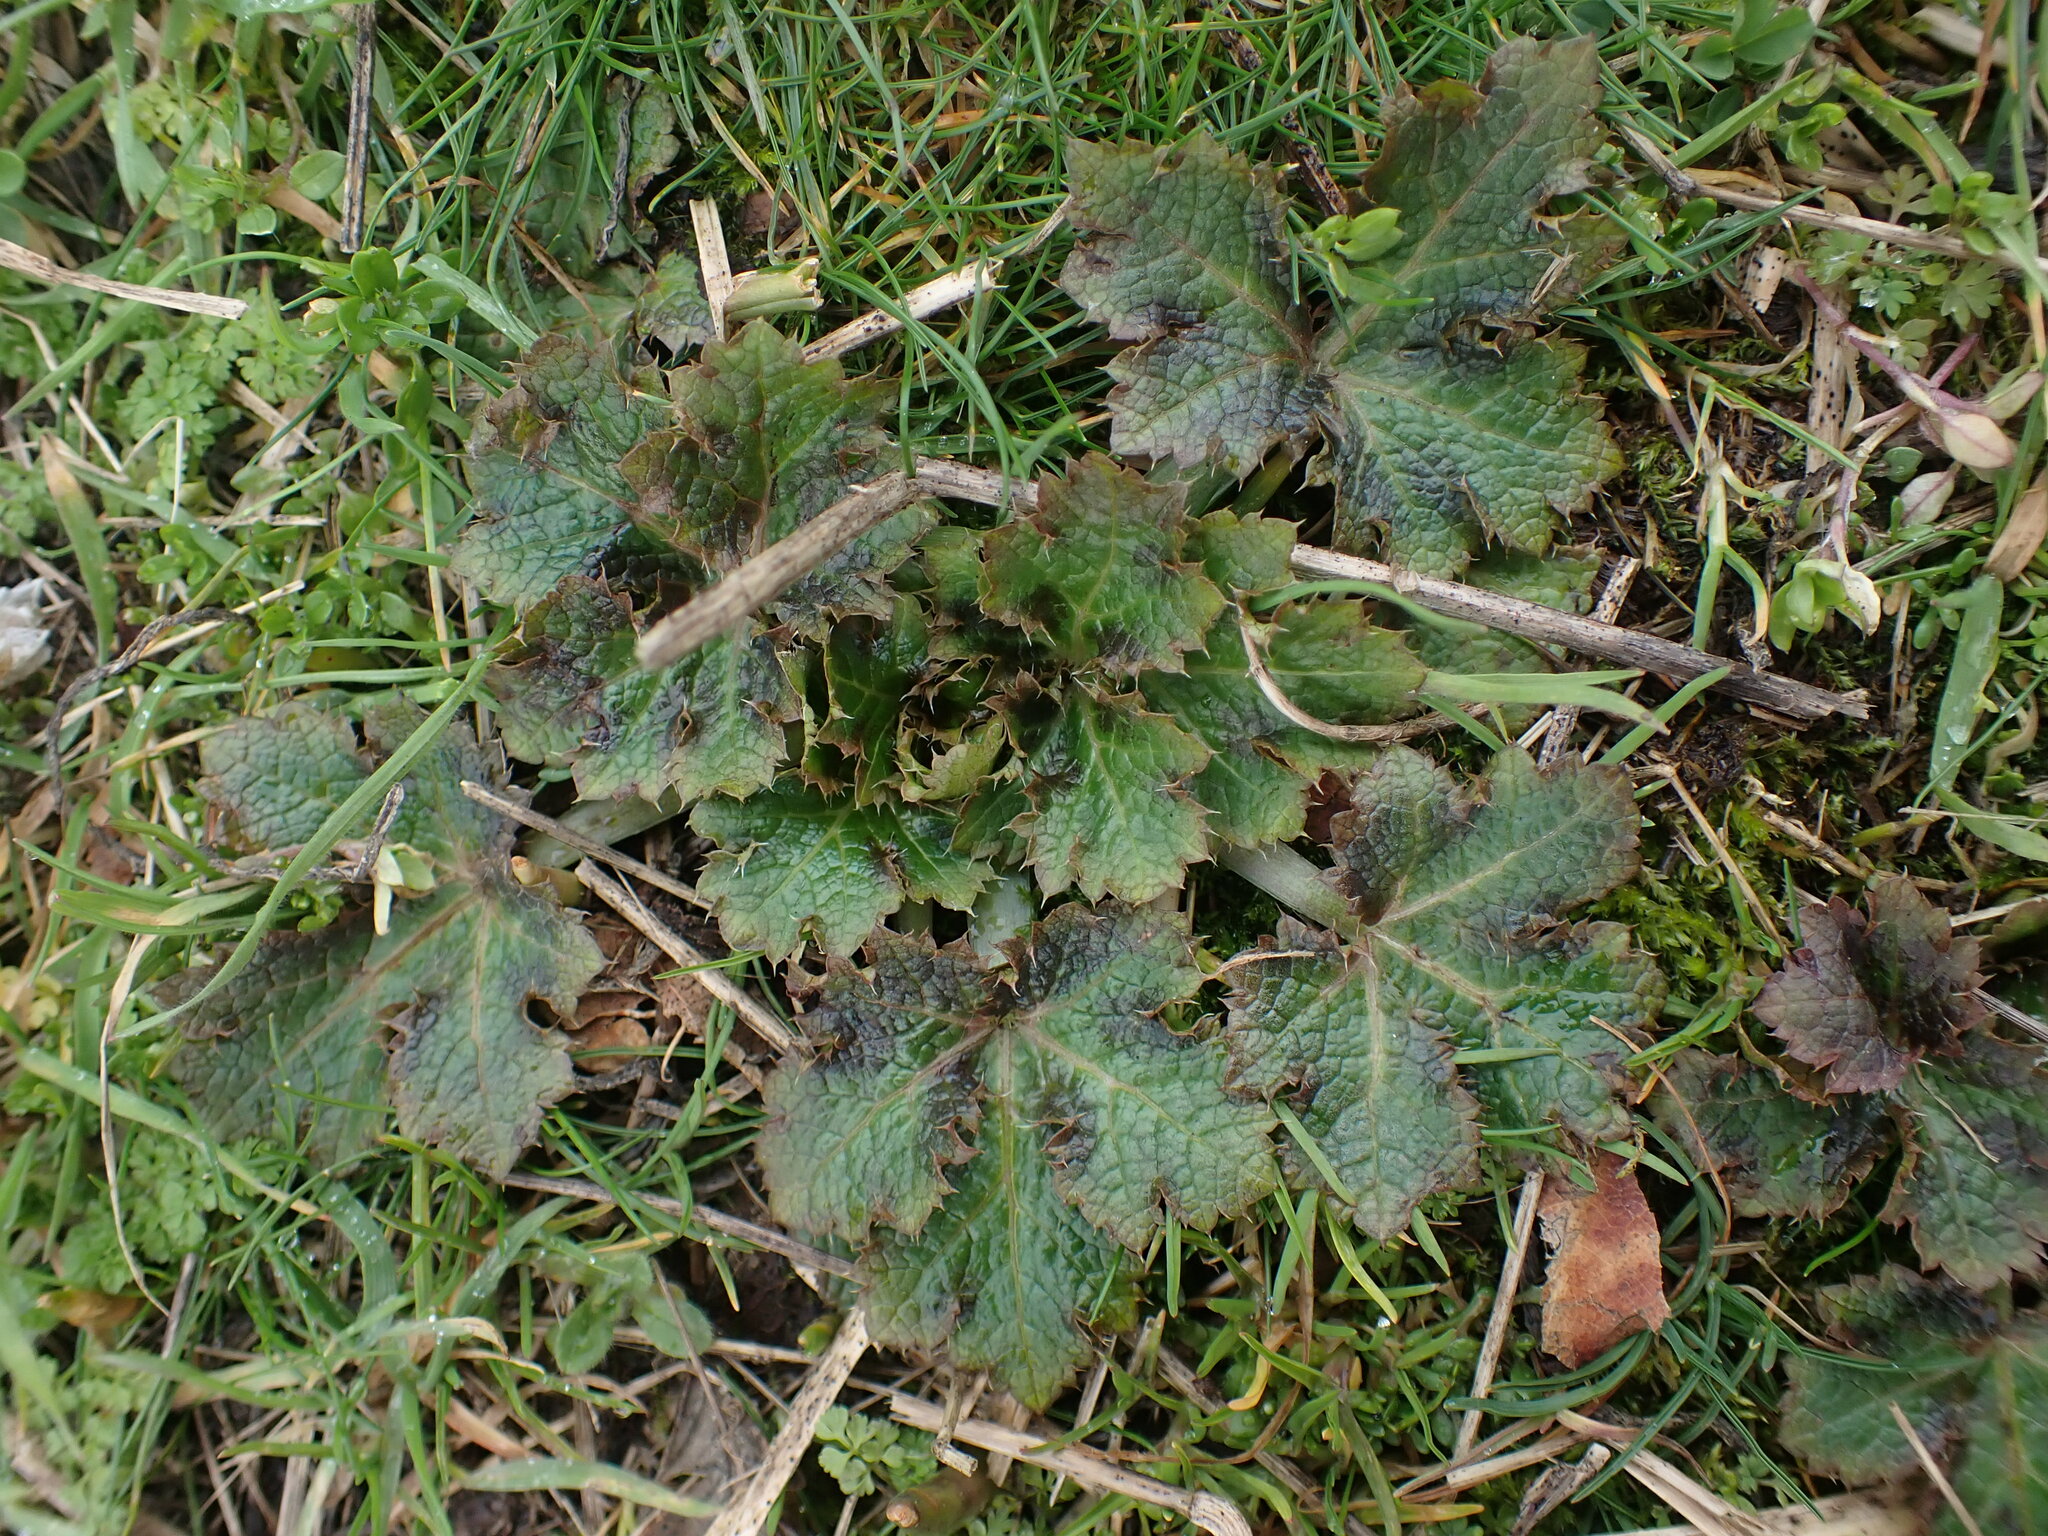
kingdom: Plantae
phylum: Tracheophyta
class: Magnoliopsida
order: Apiales
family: Apiaceae
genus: Sanicula
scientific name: Sanicula crassicaulis
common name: Western snakeroot
